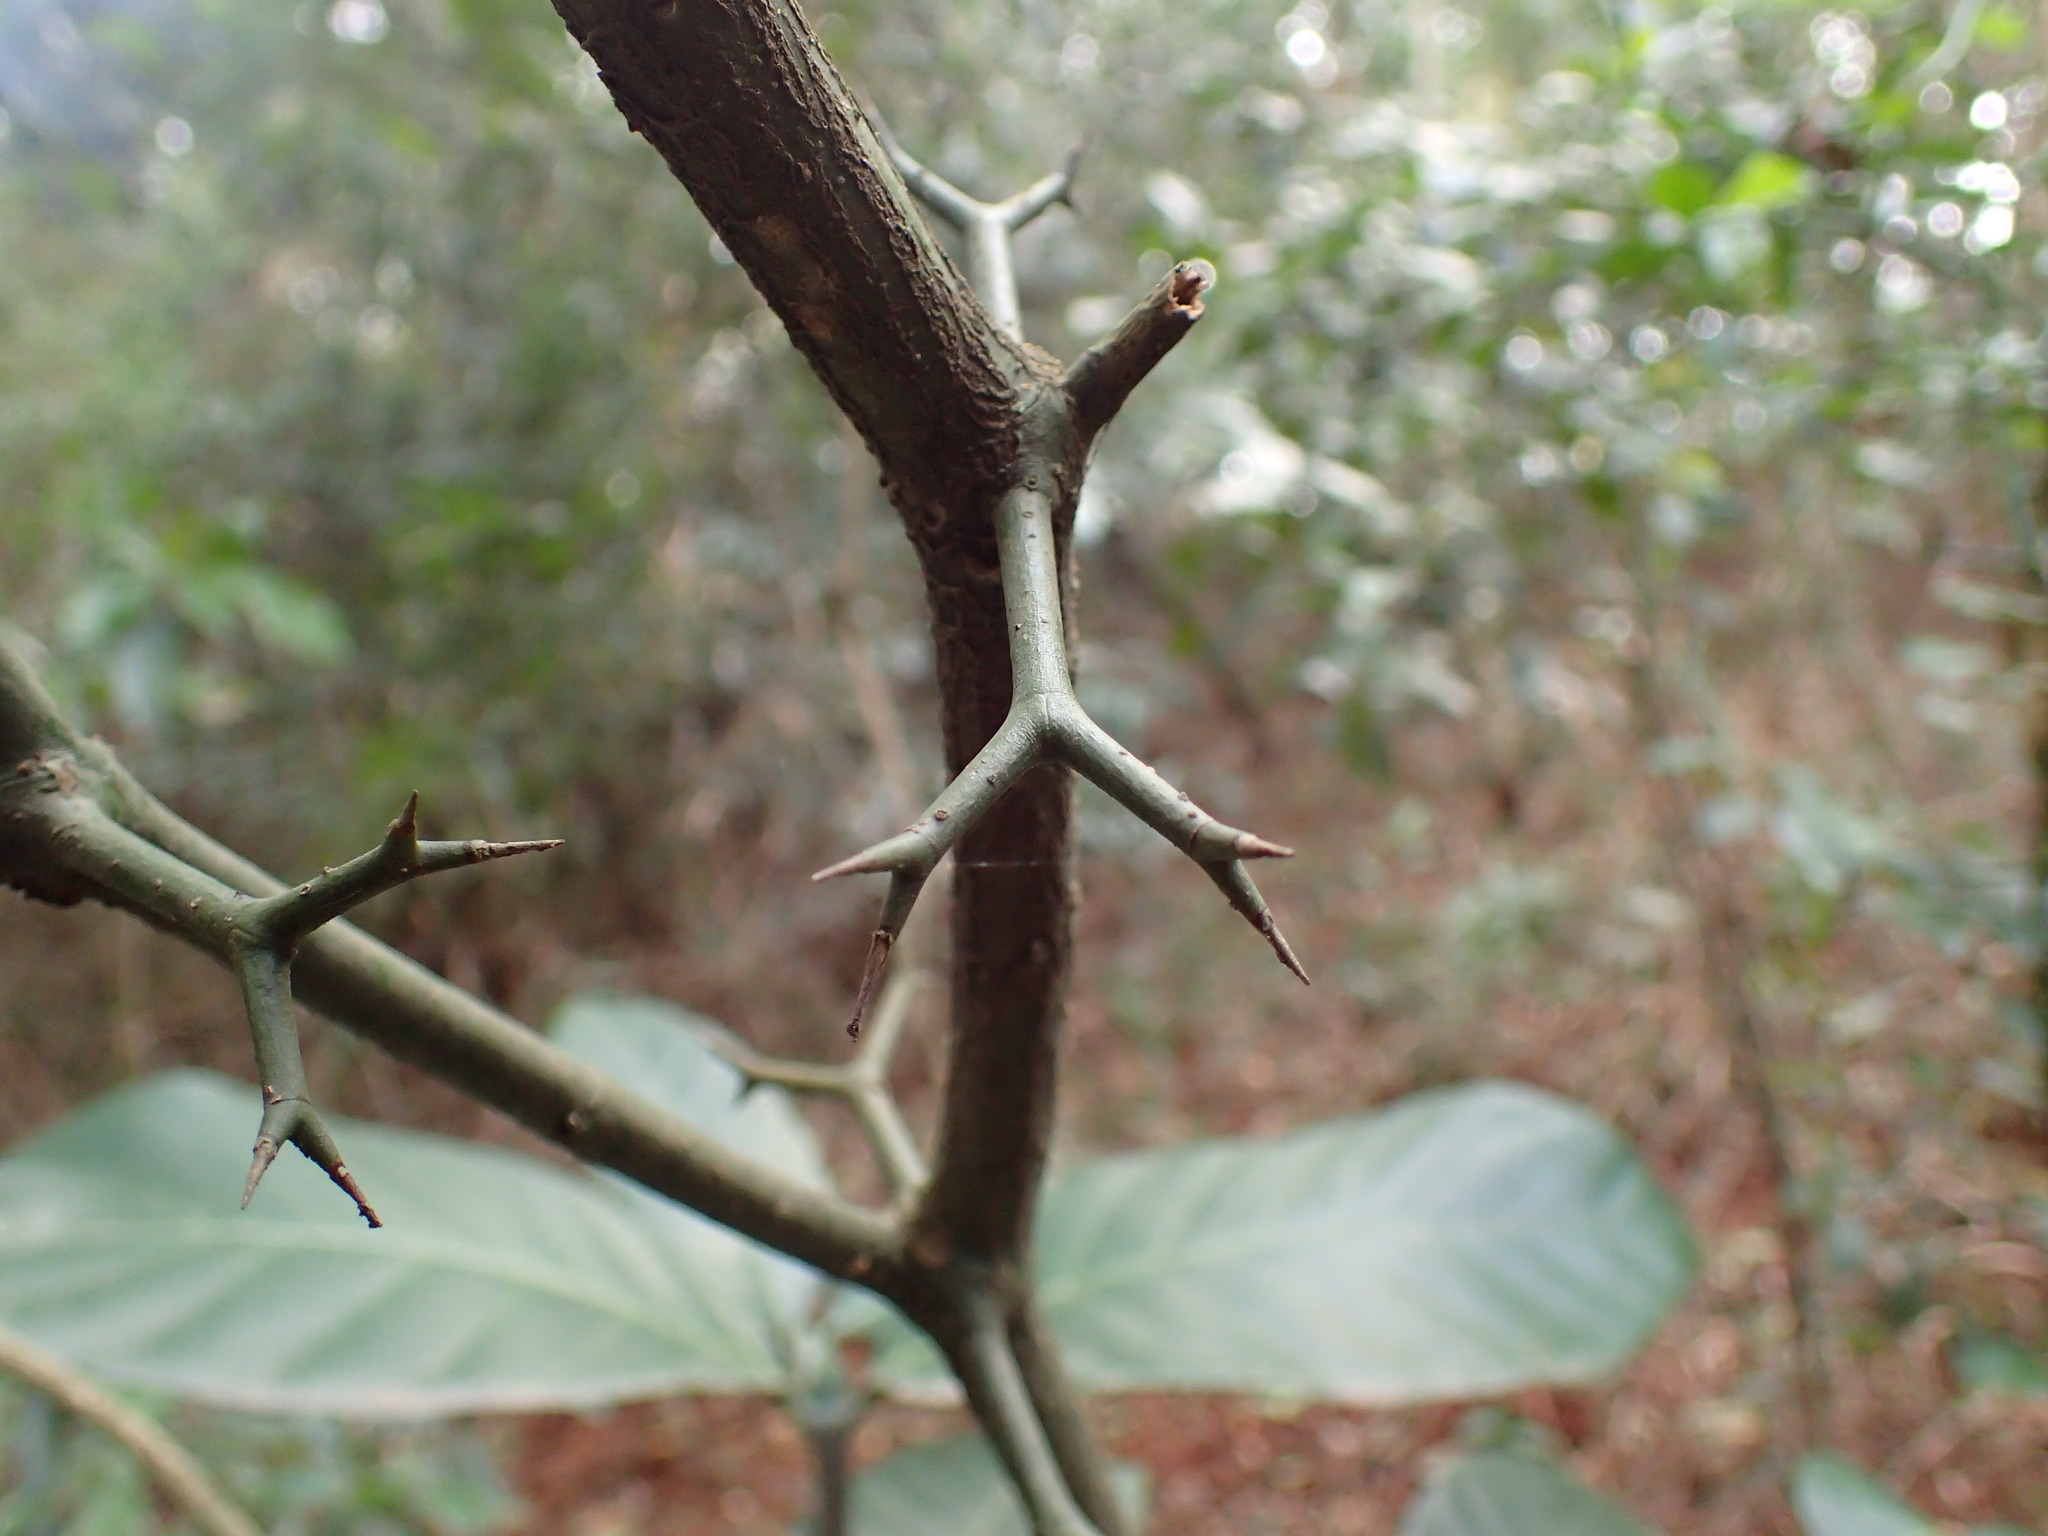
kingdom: Plantae
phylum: Tracheophyta
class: Magnoliopsida
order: Gentianales
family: Apocynaceae
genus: Carissa
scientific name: Carissa bispinosa
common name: Forest num-num
